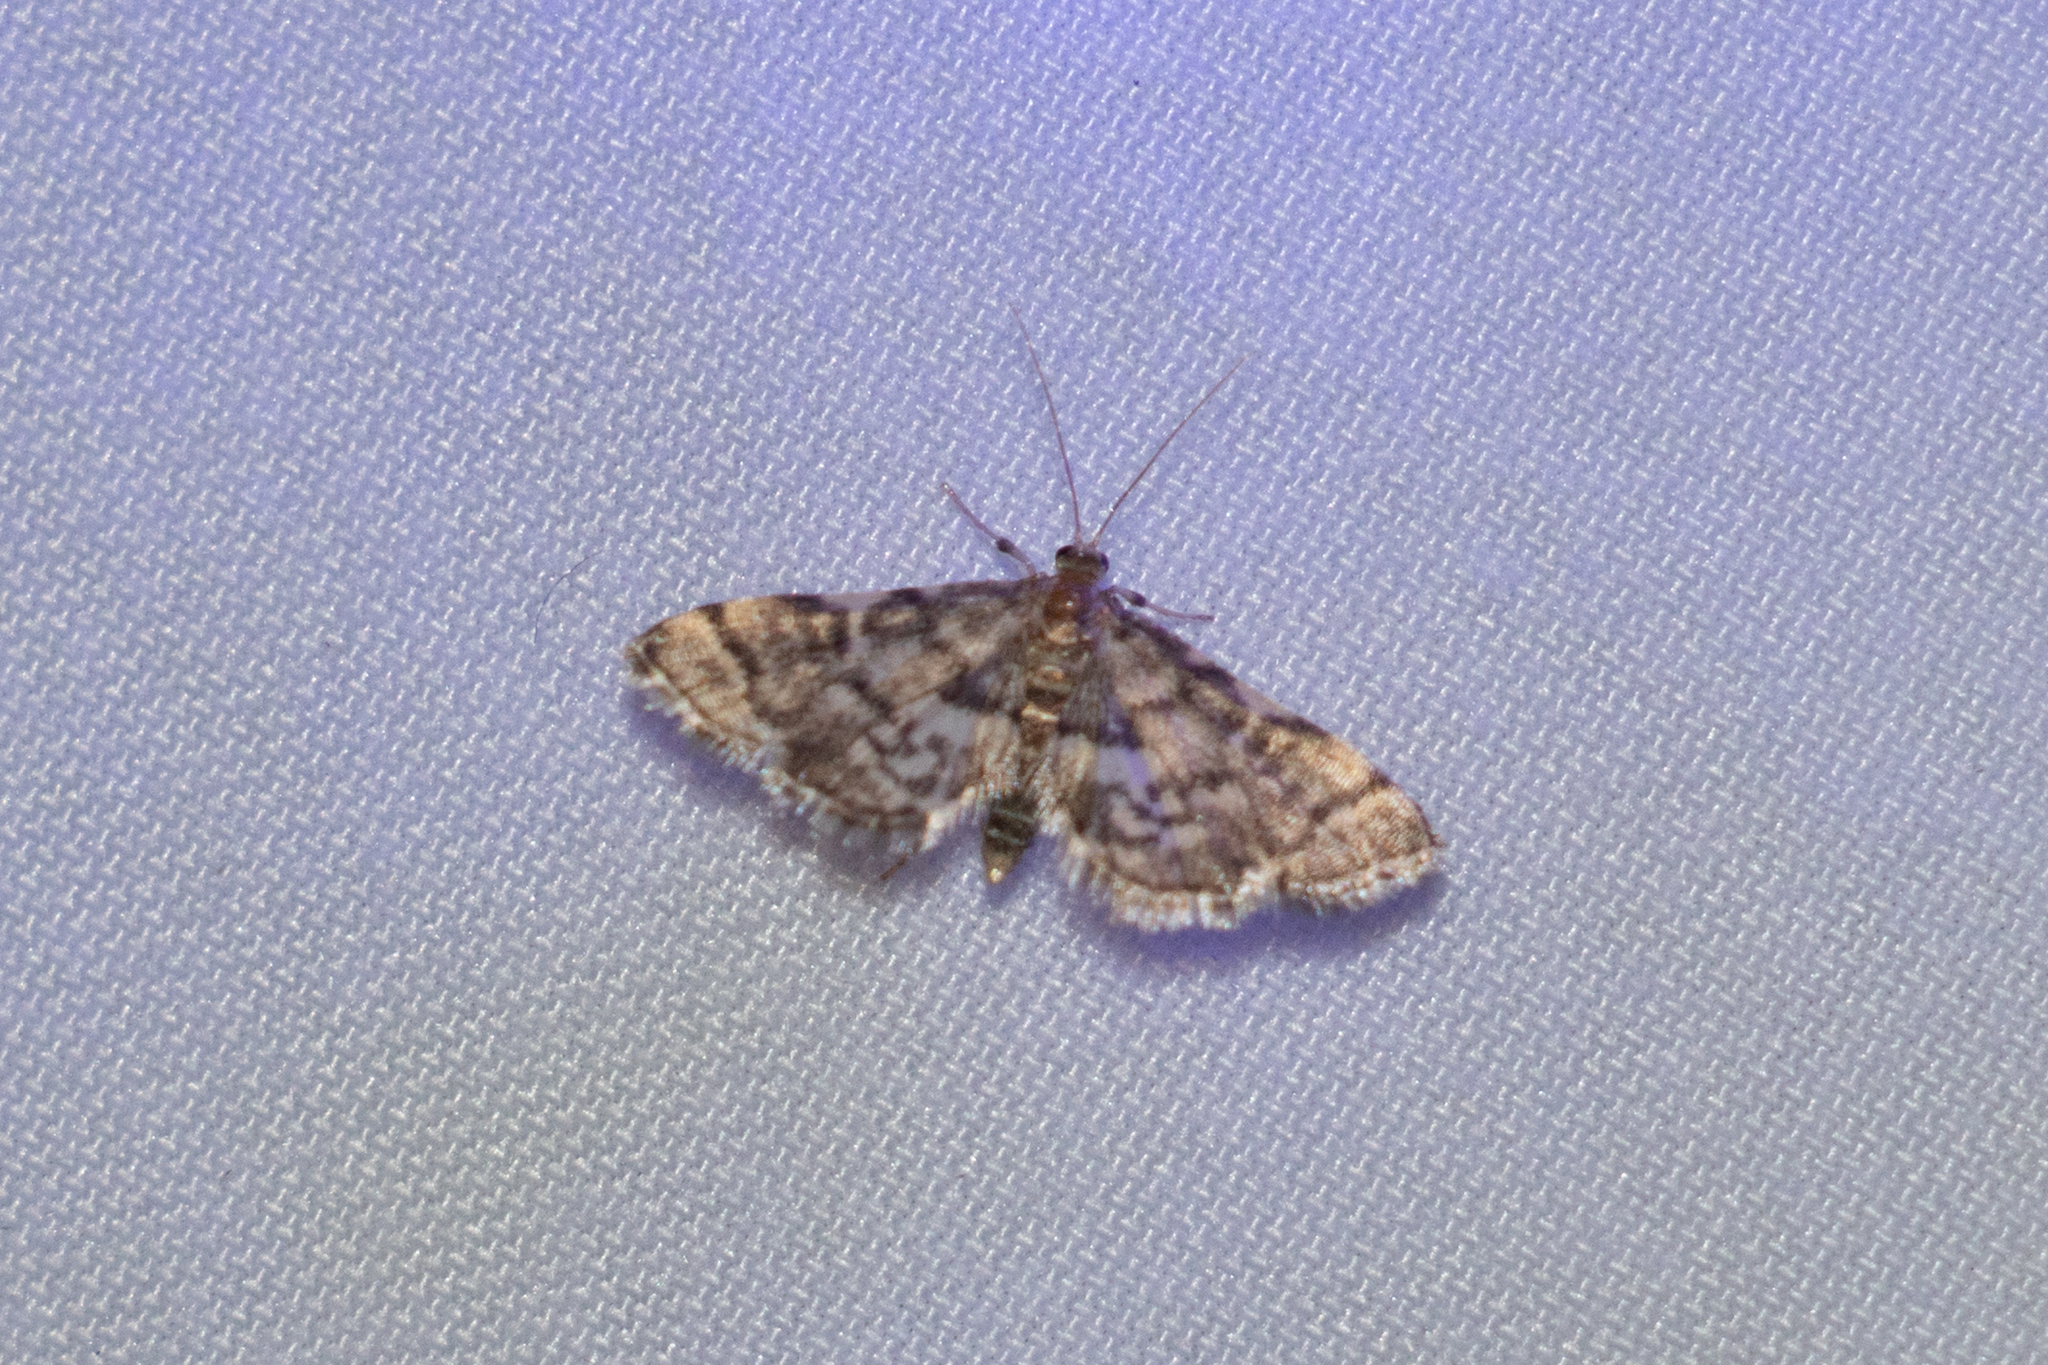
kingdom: Animalia
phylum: Arthropoda
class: Insecta
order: Lepidoptera
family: Crambidae
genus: Anageshna
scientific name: Anageshna primordialis
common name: Yellow-spotted webworm moth
